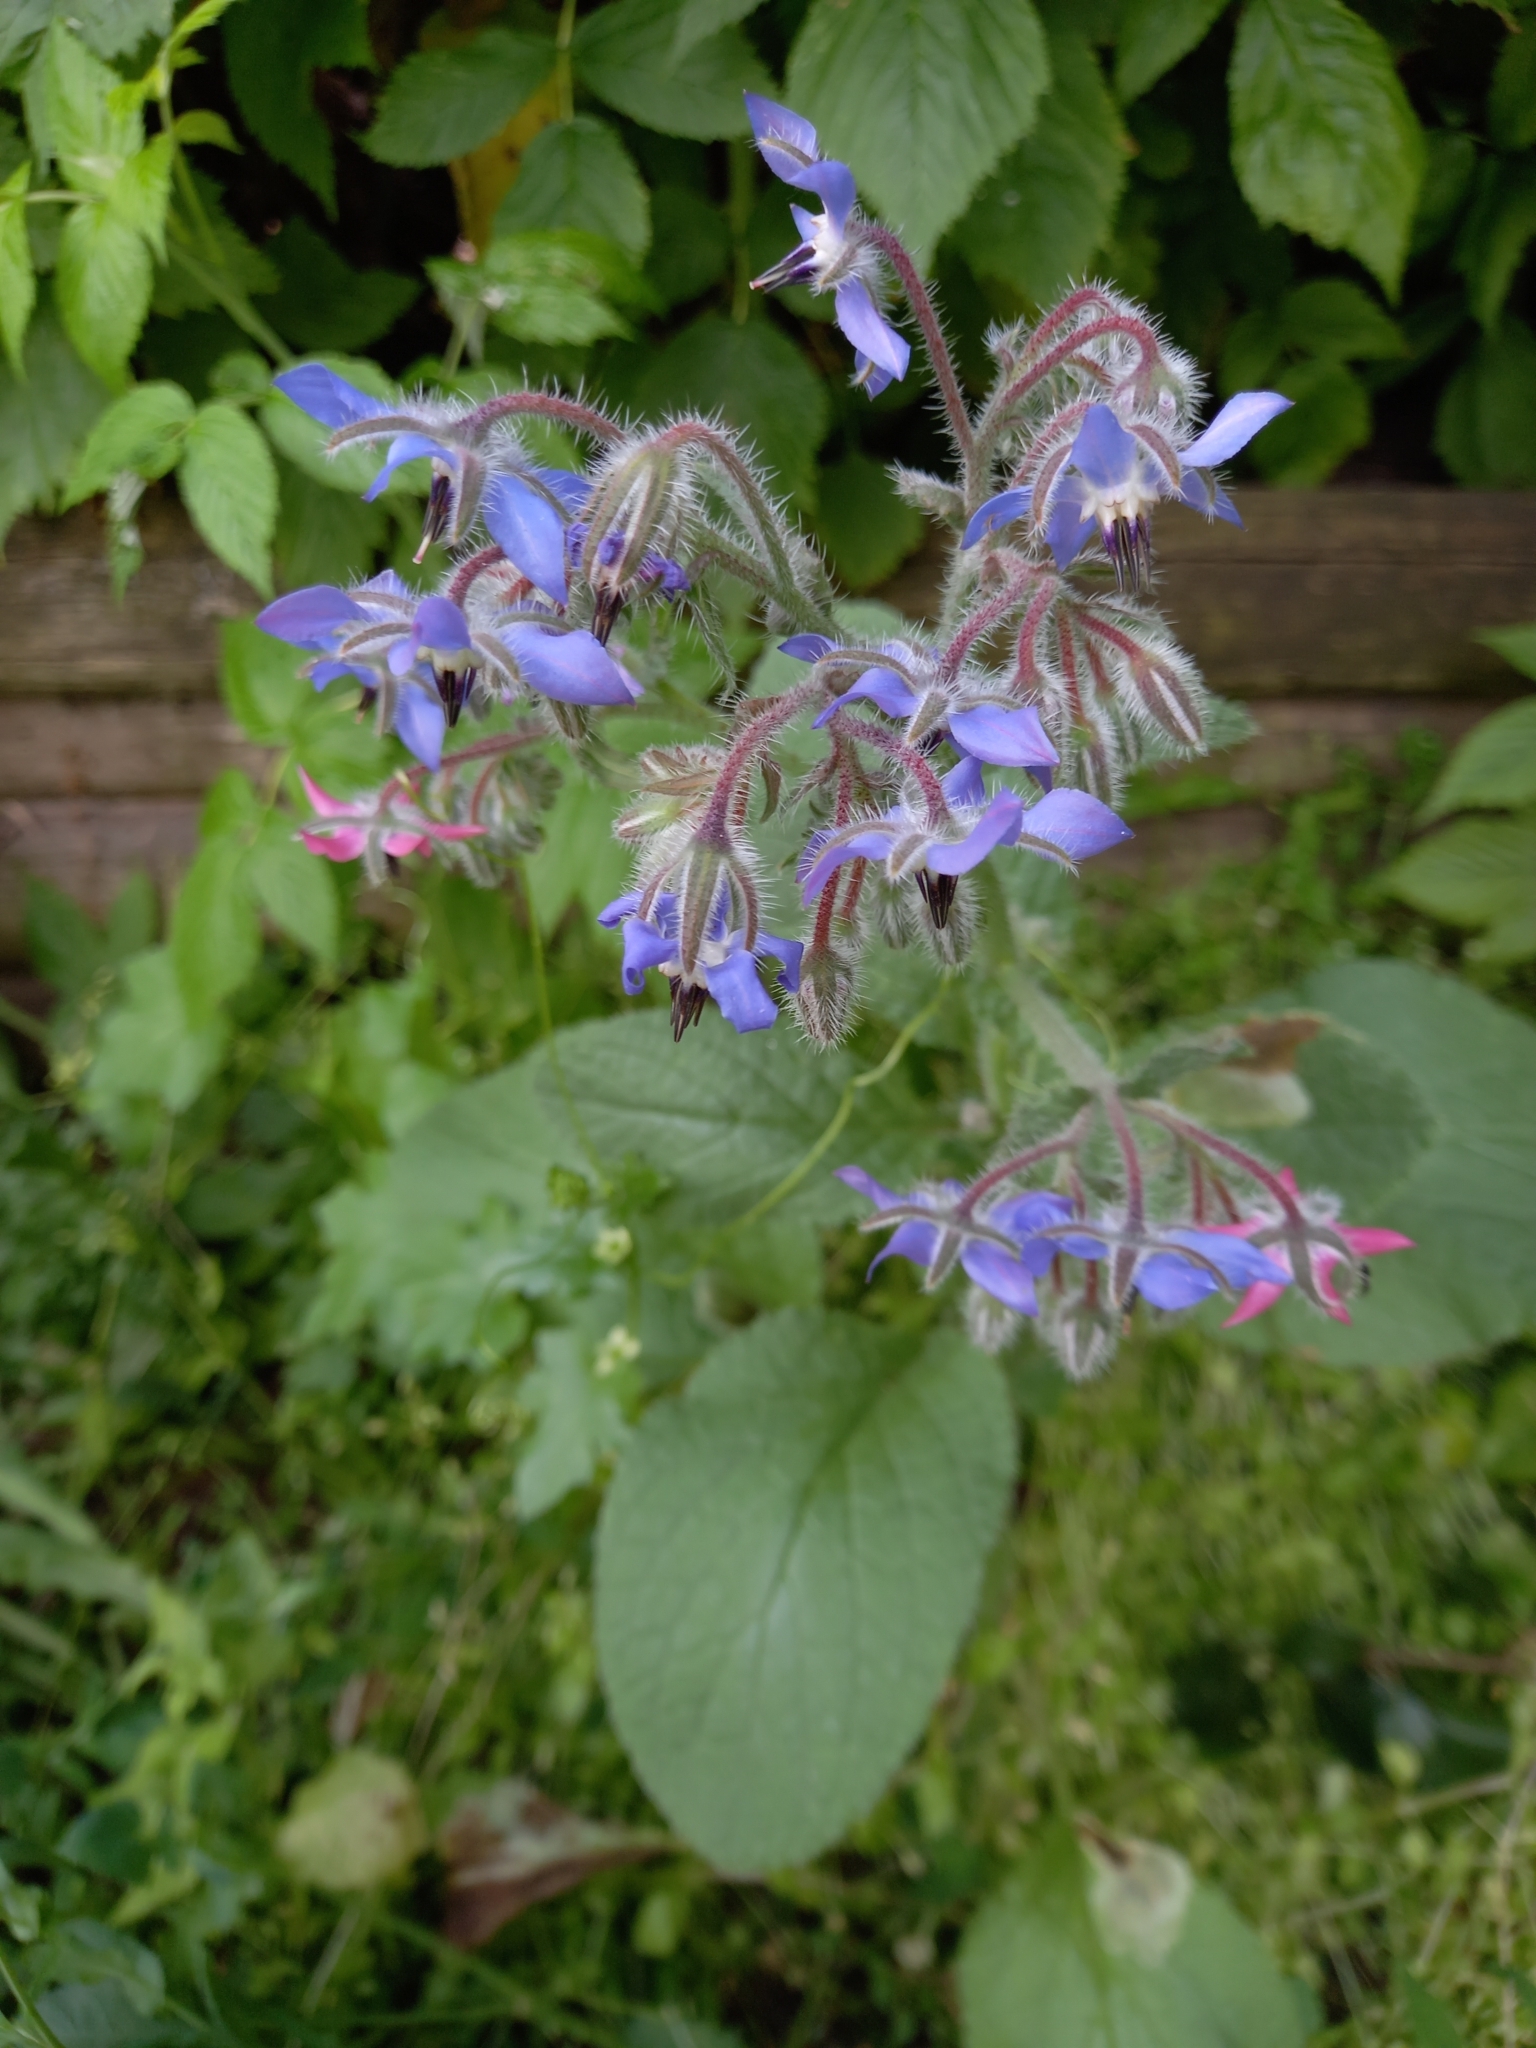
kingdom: Plantae
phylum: Tracheophyta
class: Magnoliopsida
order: Boraginales
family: Boraginaceae
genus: Borago
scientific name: Borago officinalis
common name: Borage
